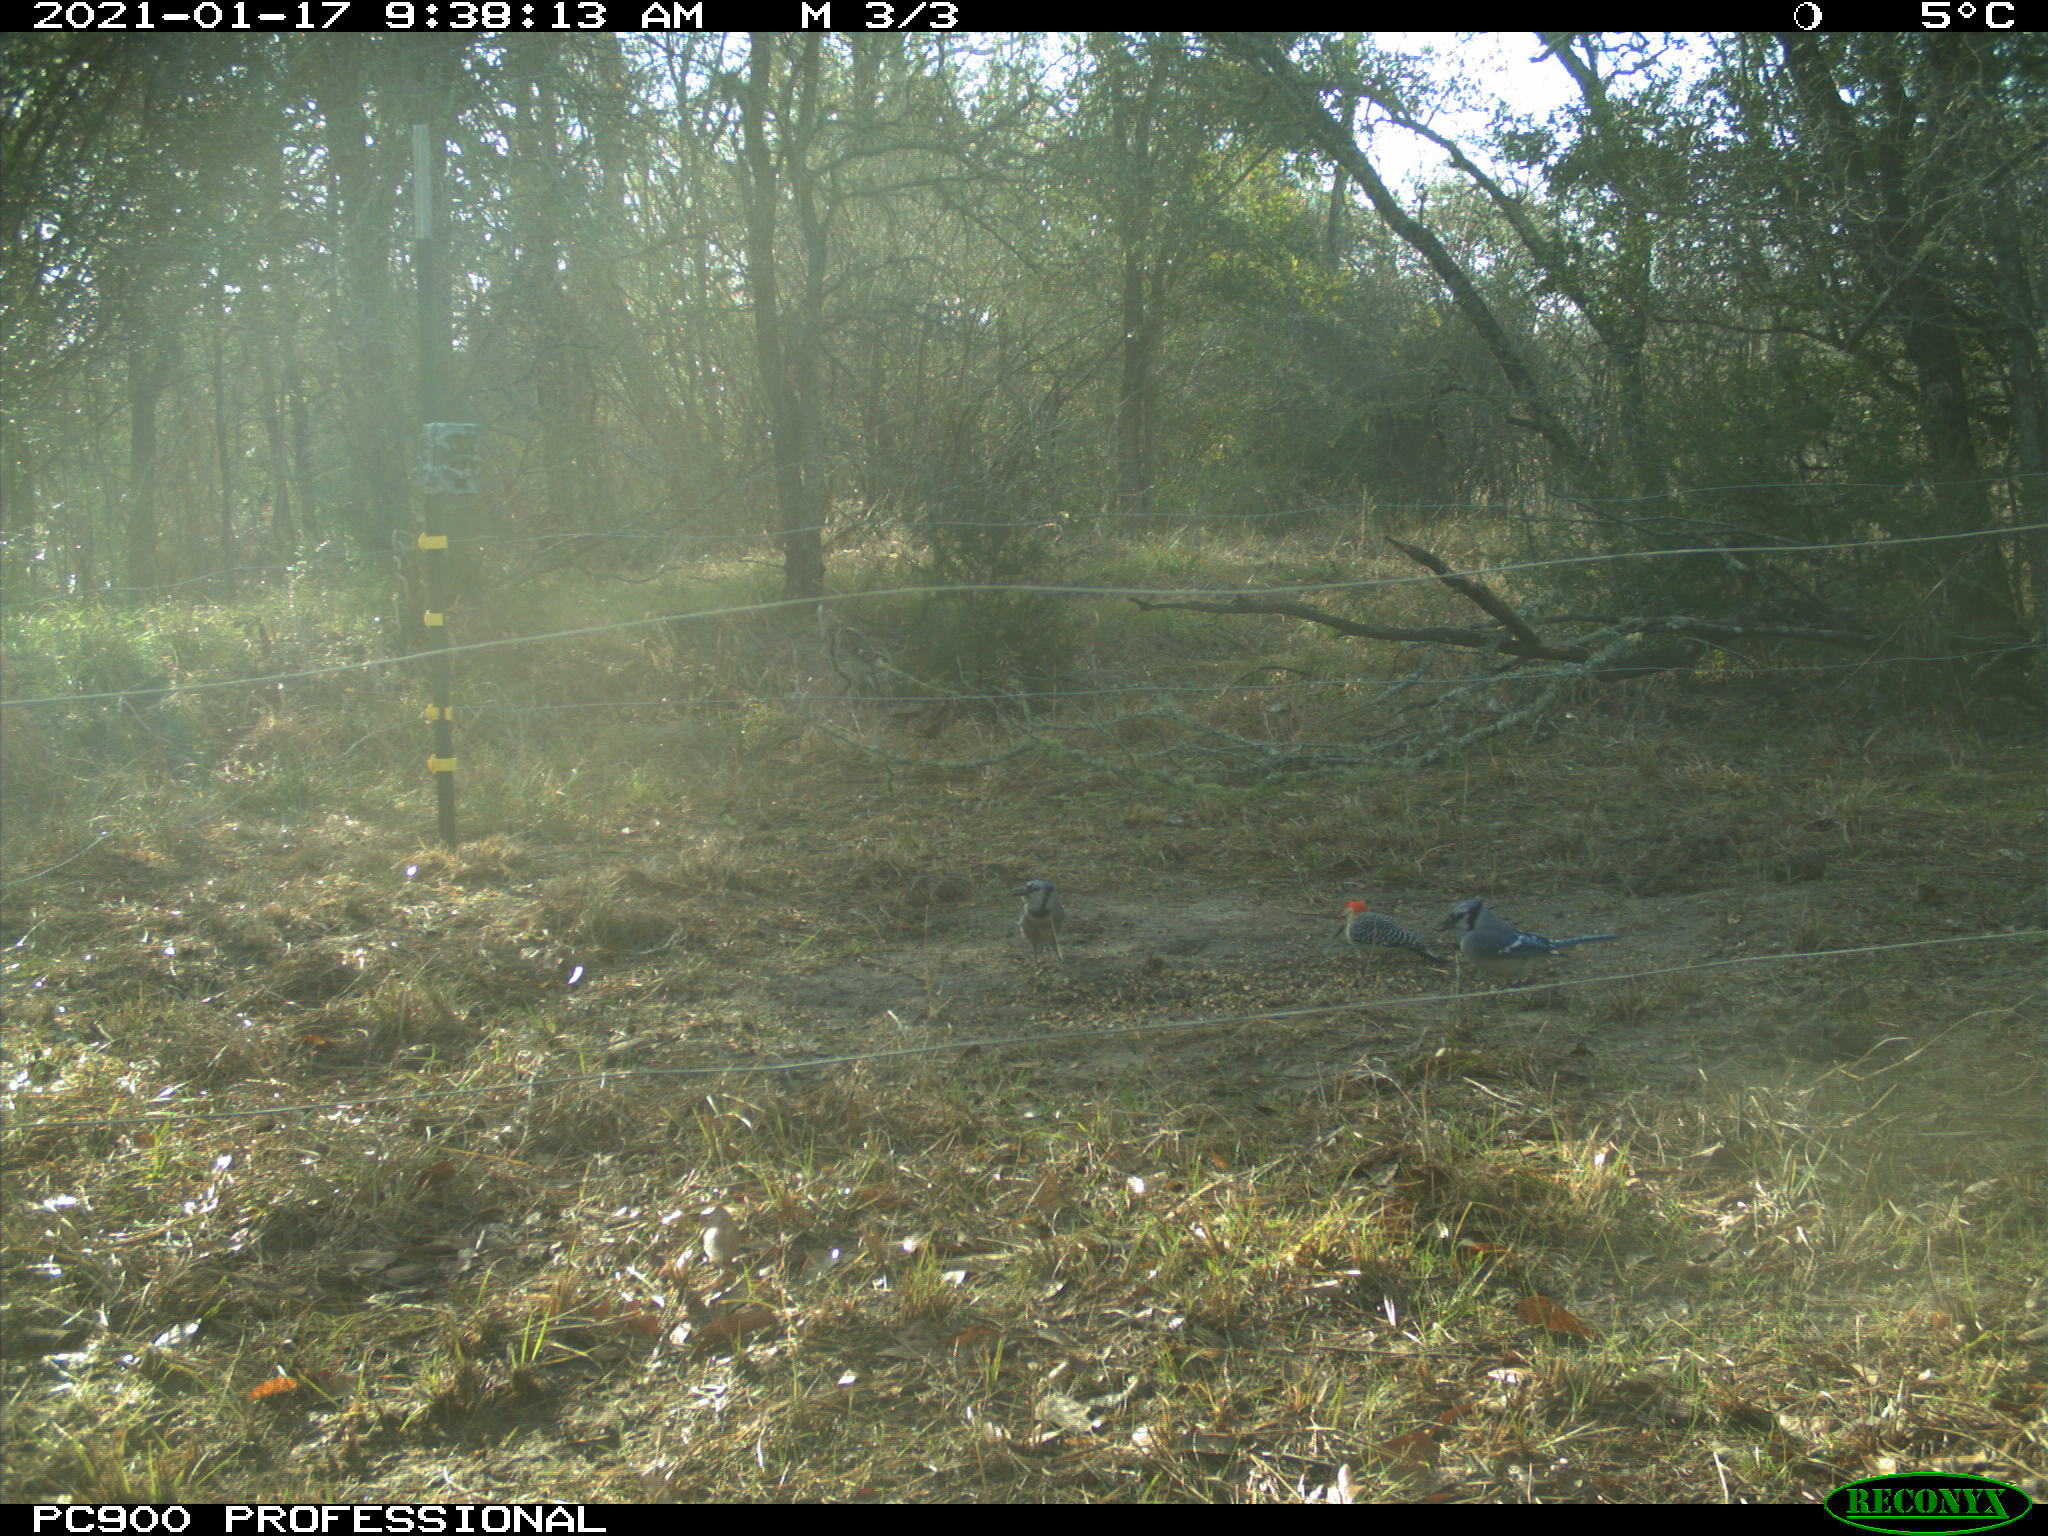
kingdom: Animalia
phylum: Chordata
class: Aves
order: Piciformes
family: Picidae
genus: Melanerpes
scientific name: Melanerpes carolinus
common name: Red-bellied woodpecker
